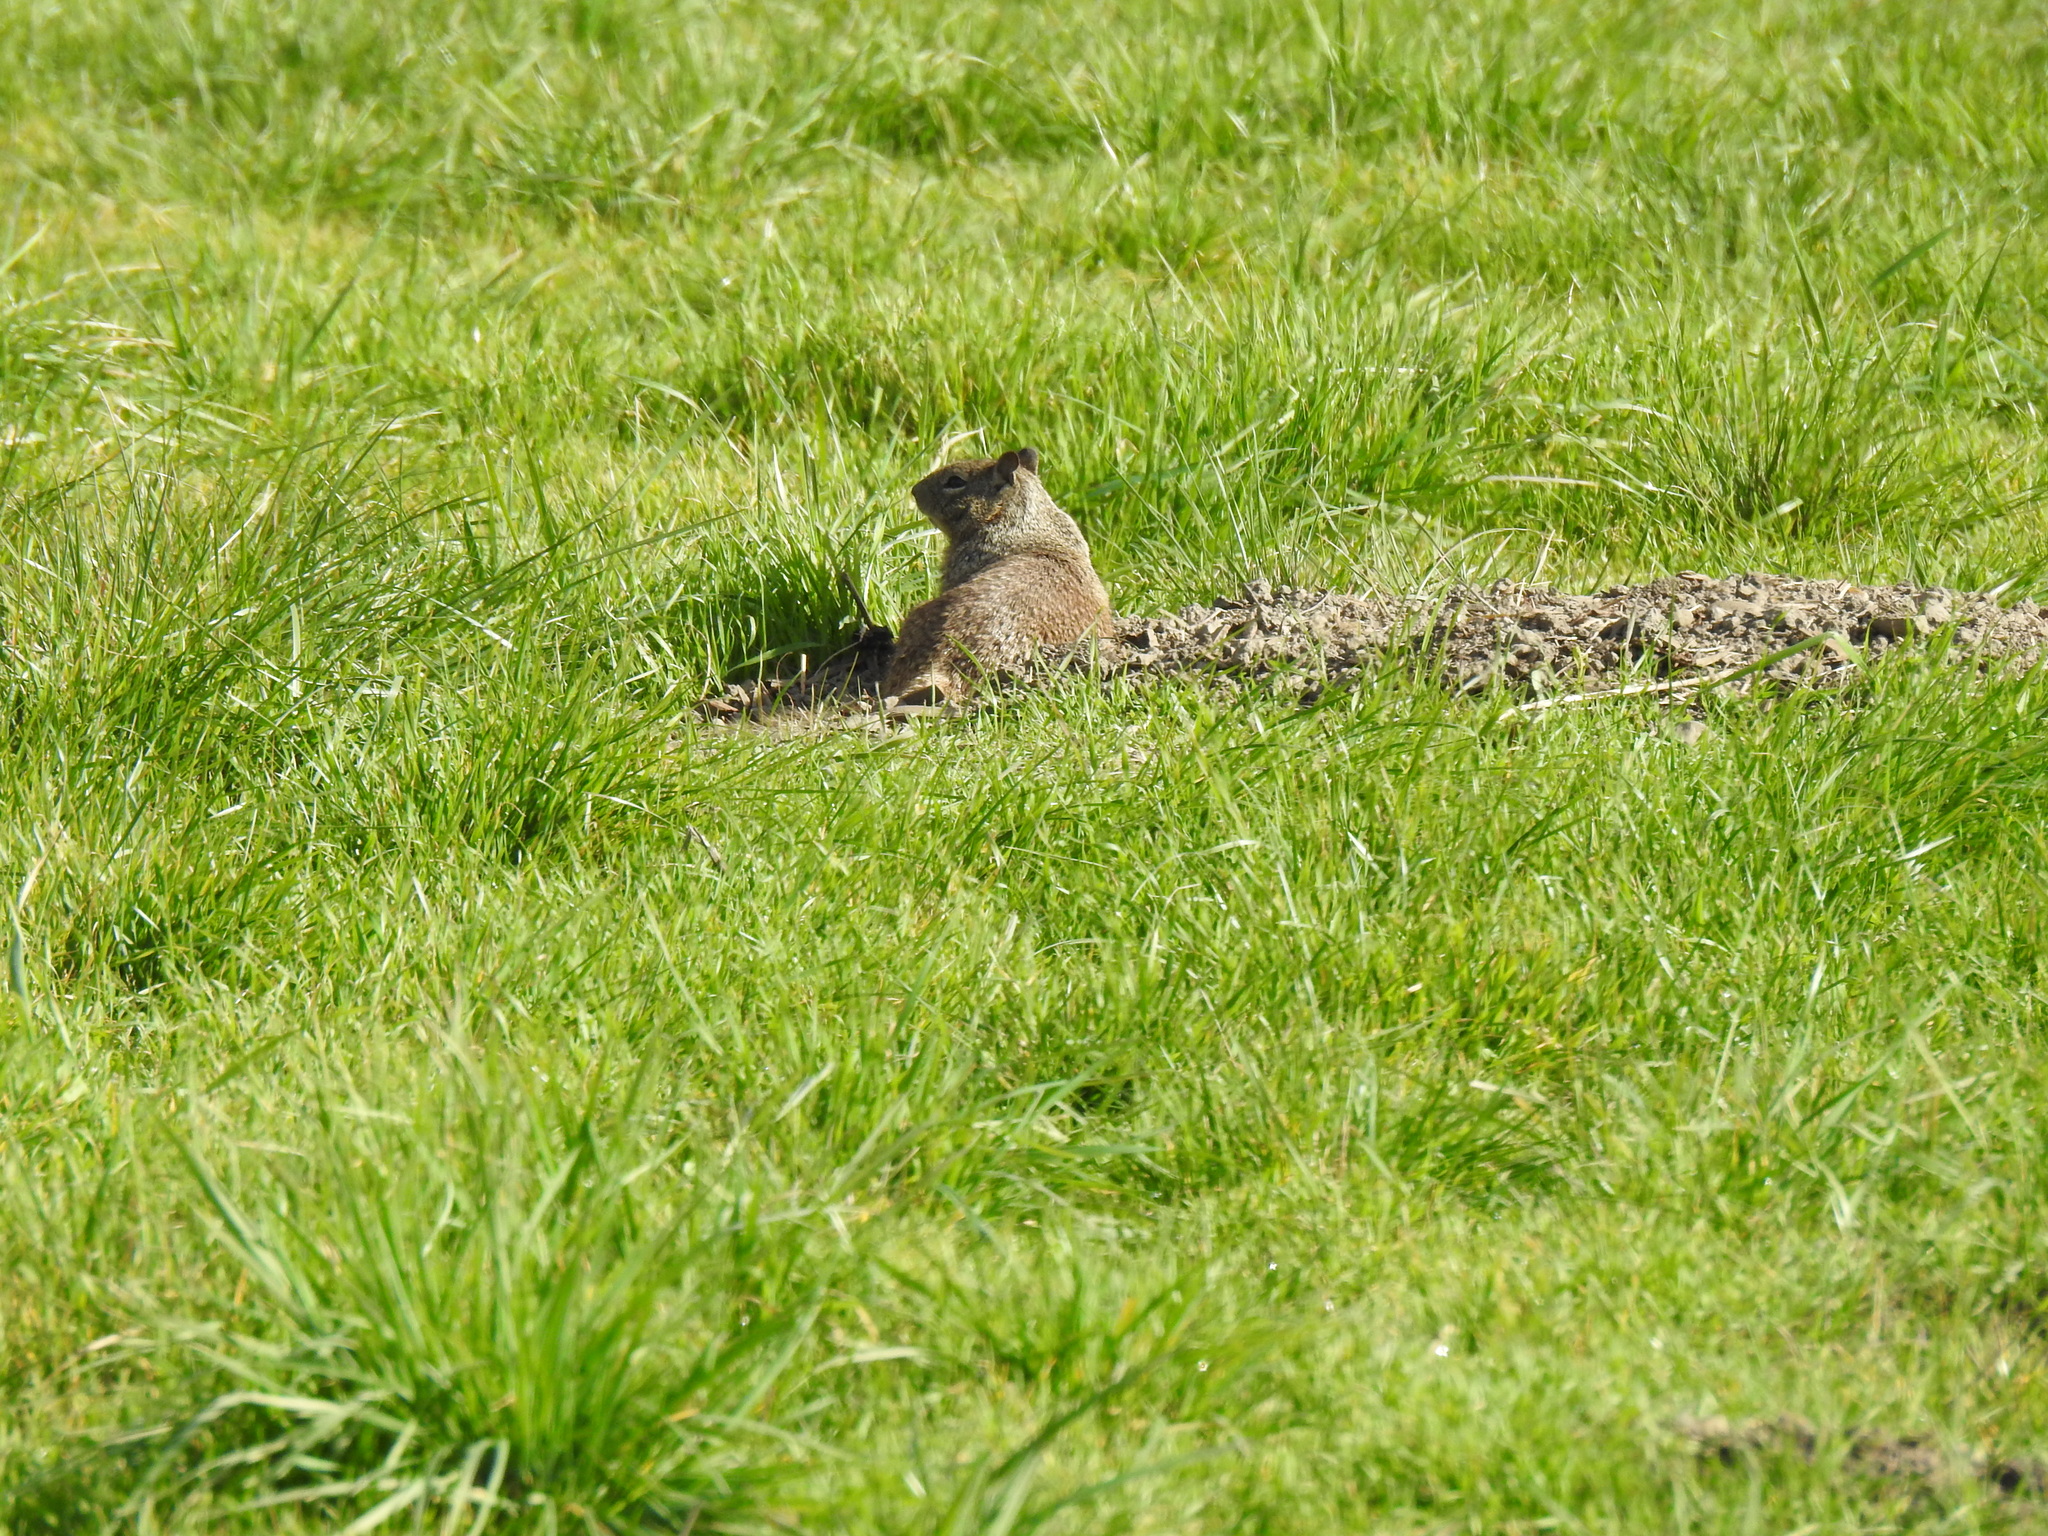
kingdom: Animalia
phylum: Chordata
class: Mammalia
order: Rodentia
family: Sciuridae
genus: Otospermophilus
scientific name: Otospermophilus beecheyi
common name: California ground squirrel
